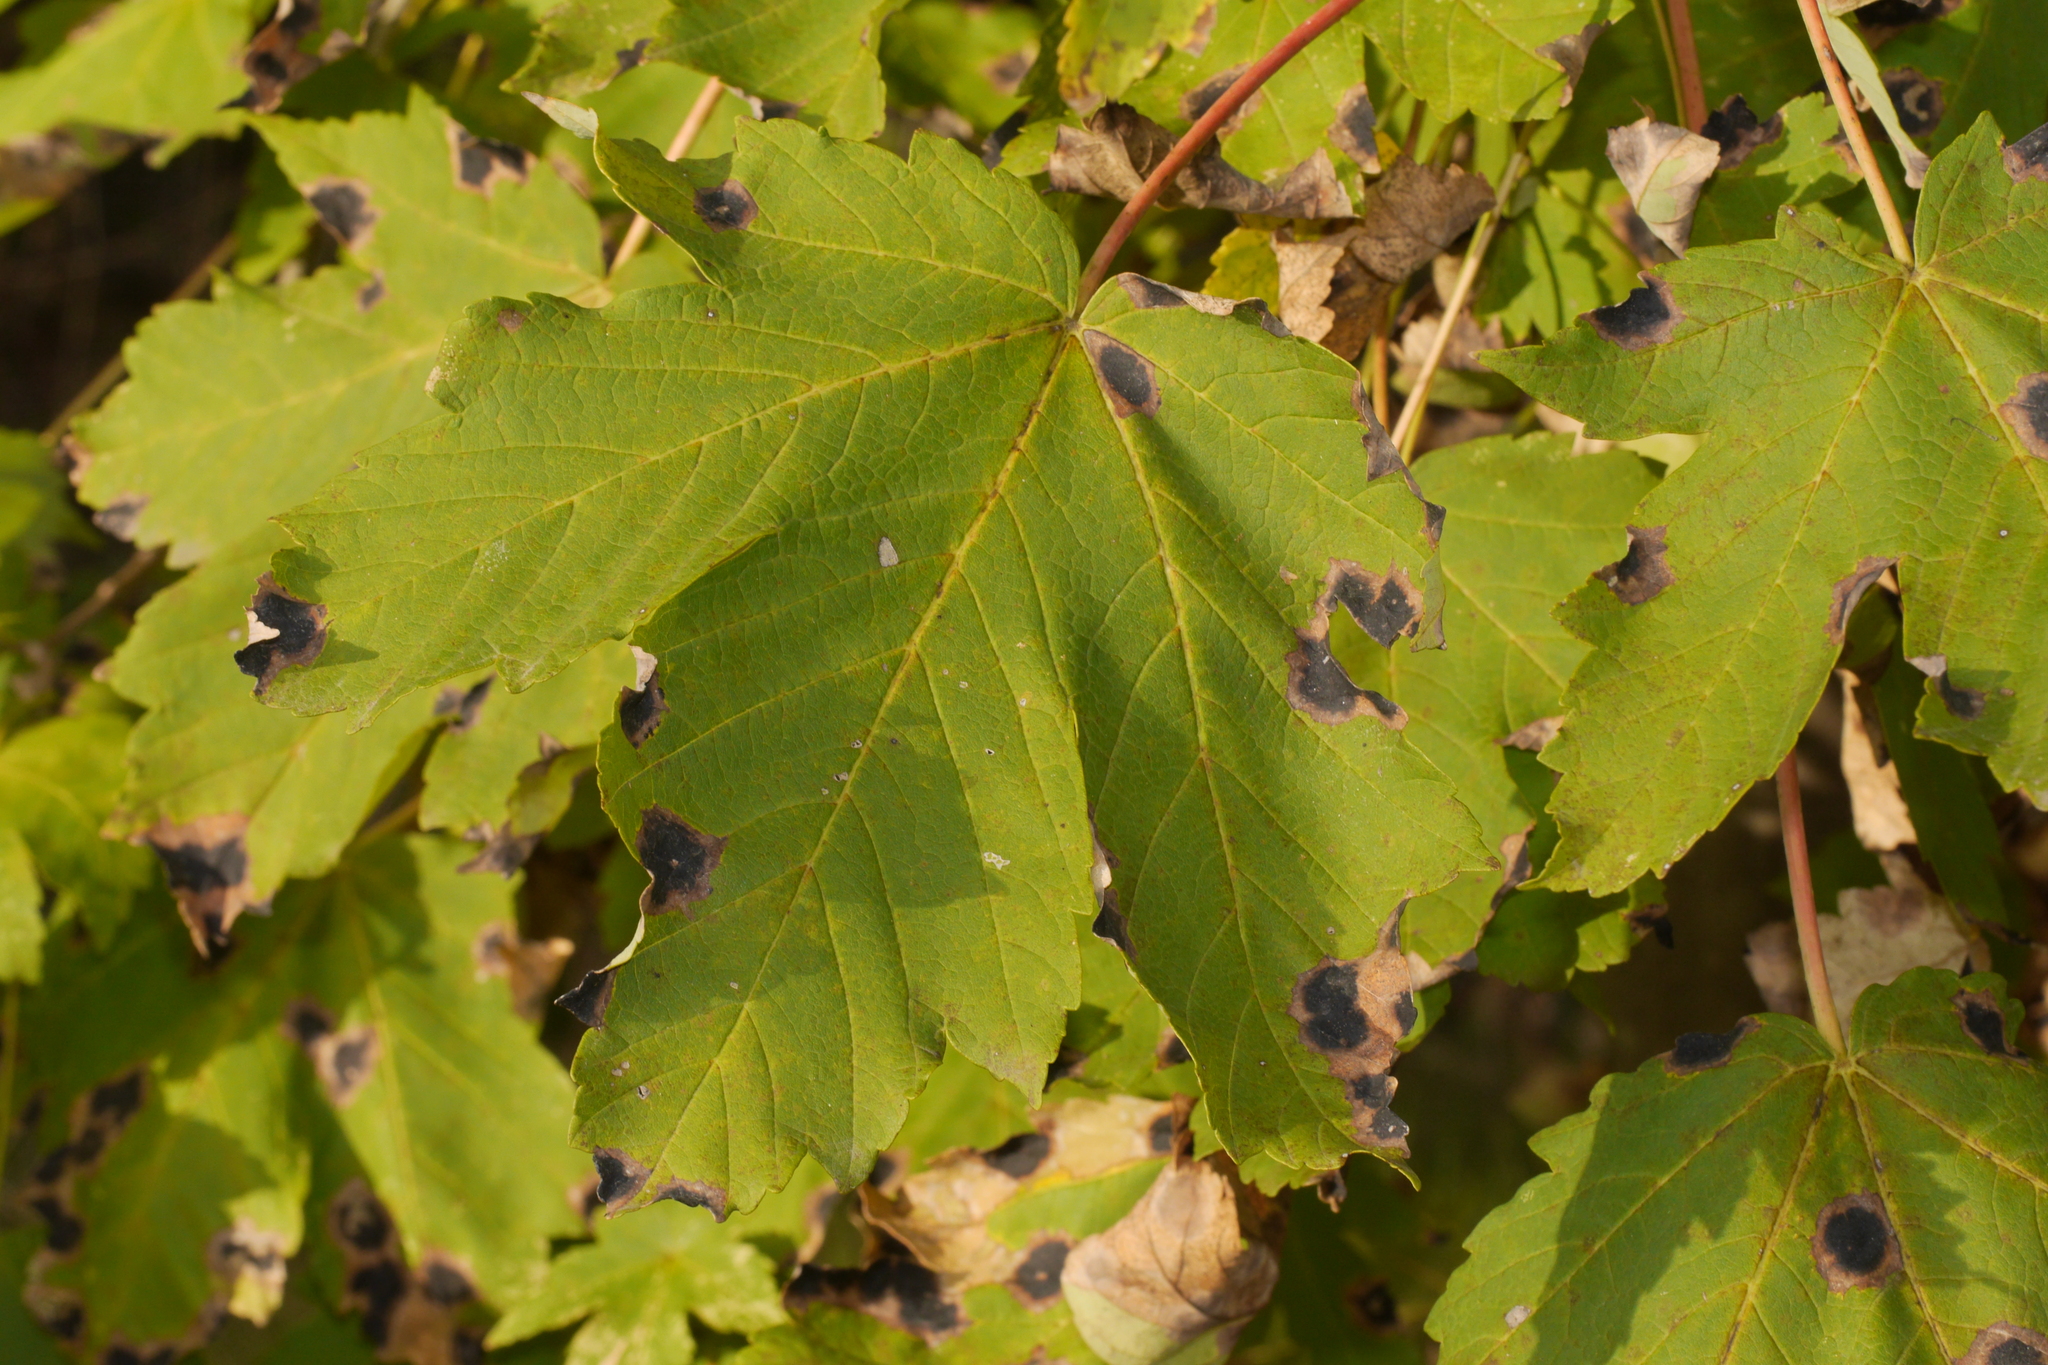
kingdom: Fungi
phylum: Ascomycota
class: Leotiomycetes
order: Rhytismatales
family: Rhytismataceae
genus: Rhytisma
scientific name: Rhytisma acerinum
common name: European tar spot
